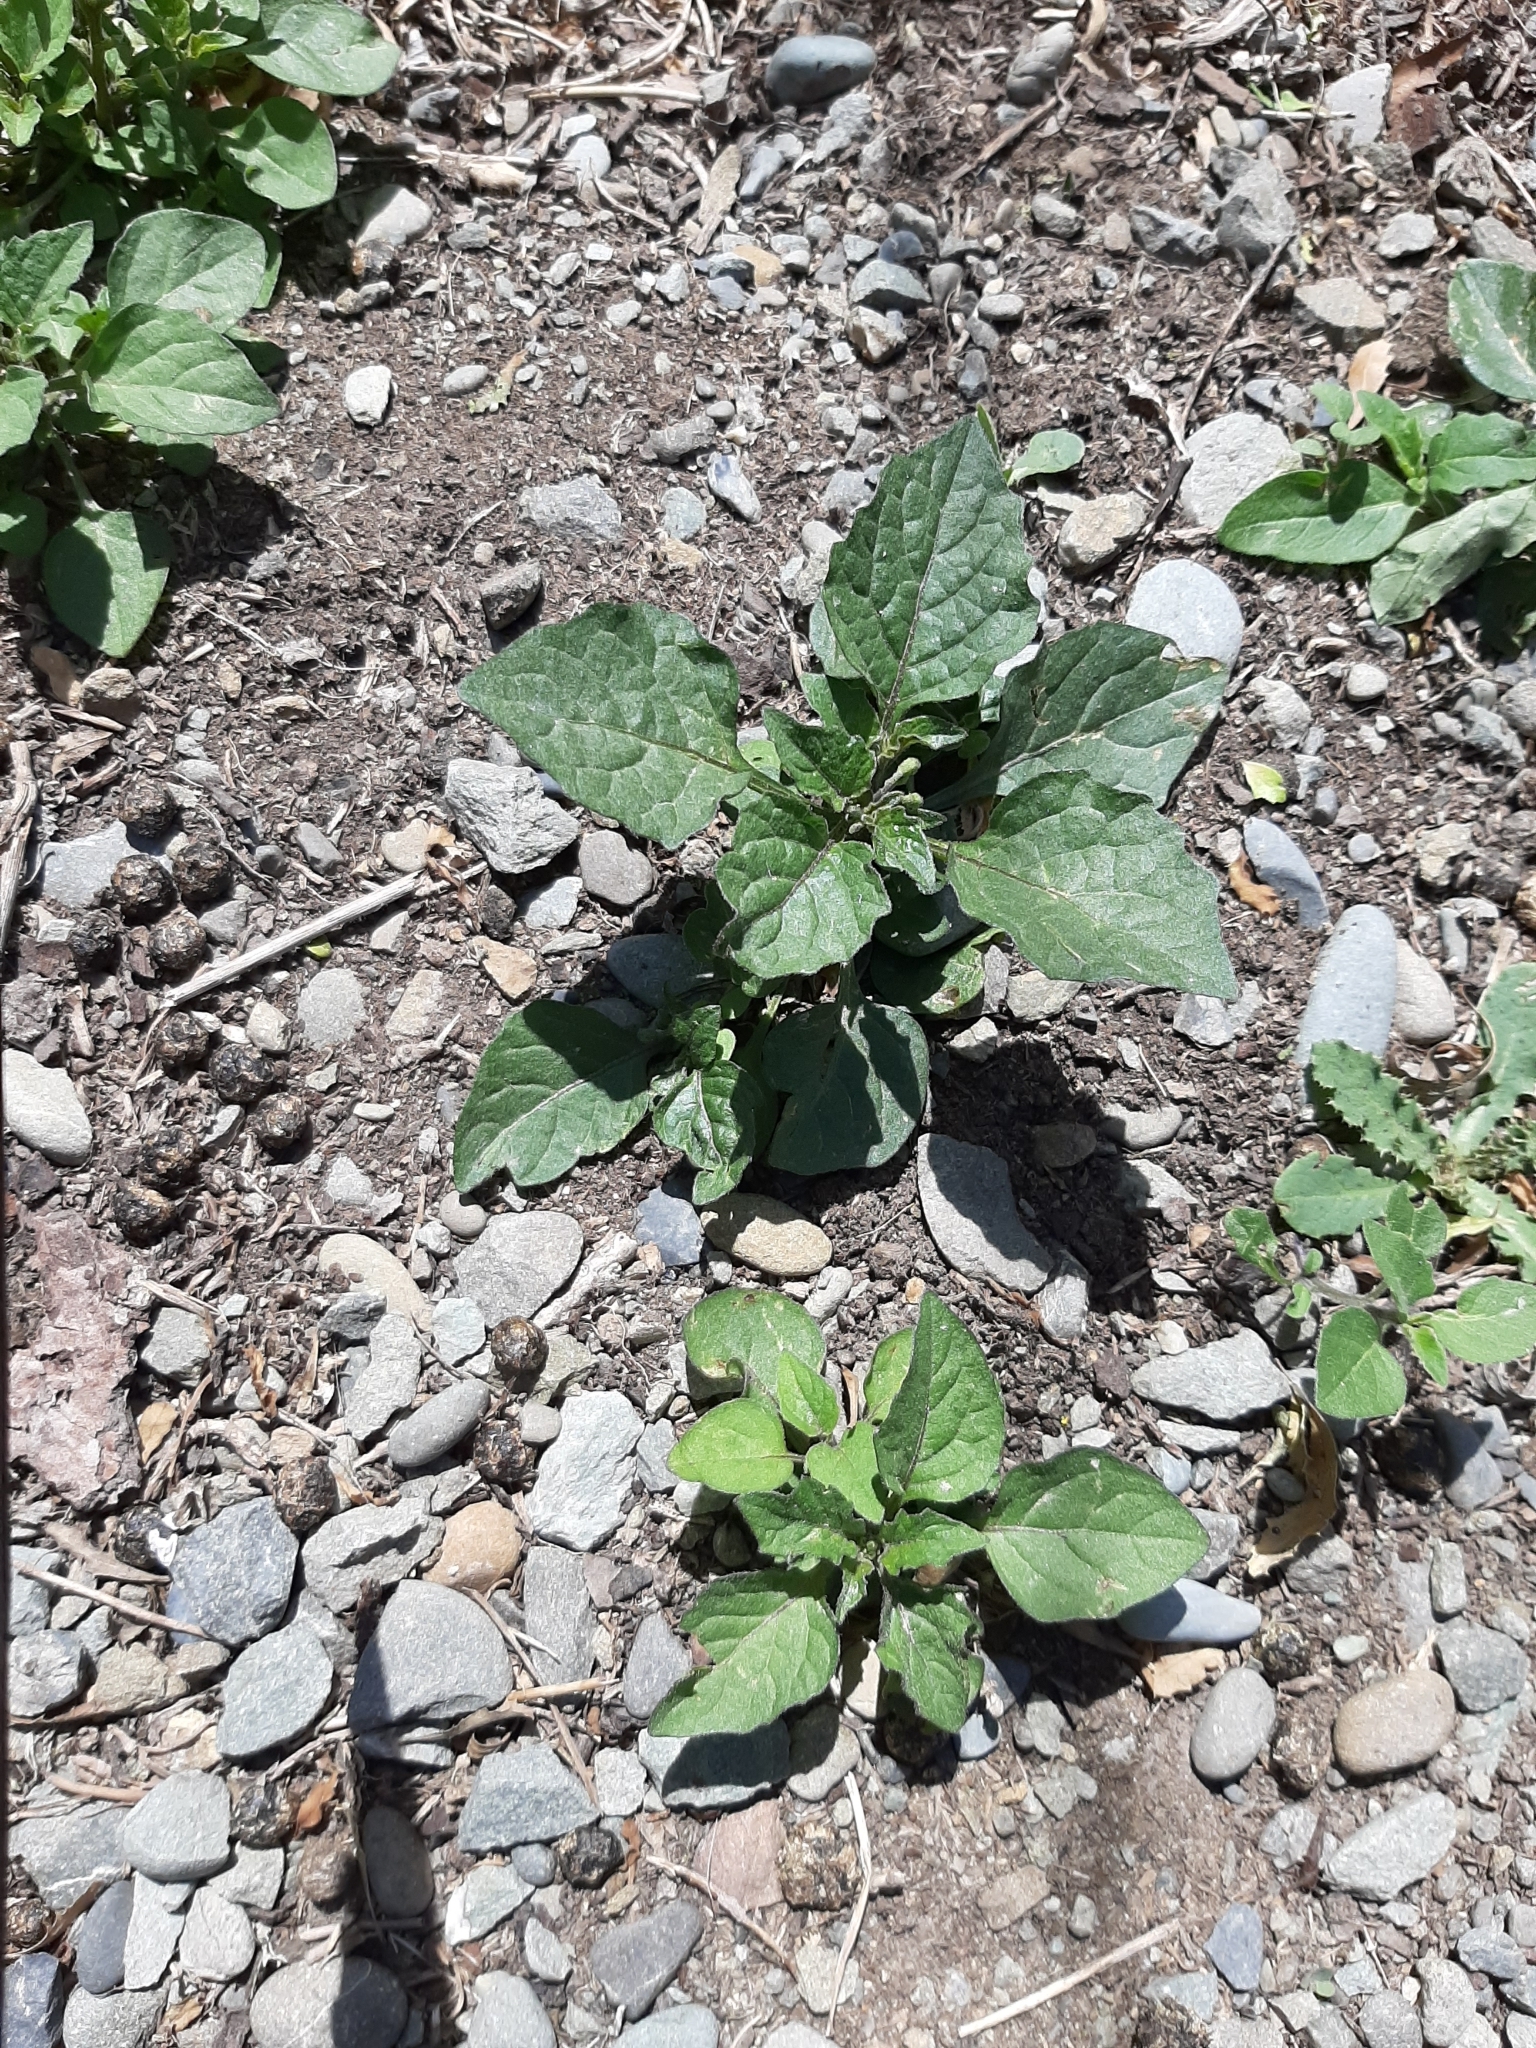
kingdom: Plantae
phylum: Tracheophyta
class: Magnoliopsida
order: Solanales
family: Solanaceae
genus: Solanum
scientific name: Solanum nigrum
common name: Black nightshade
